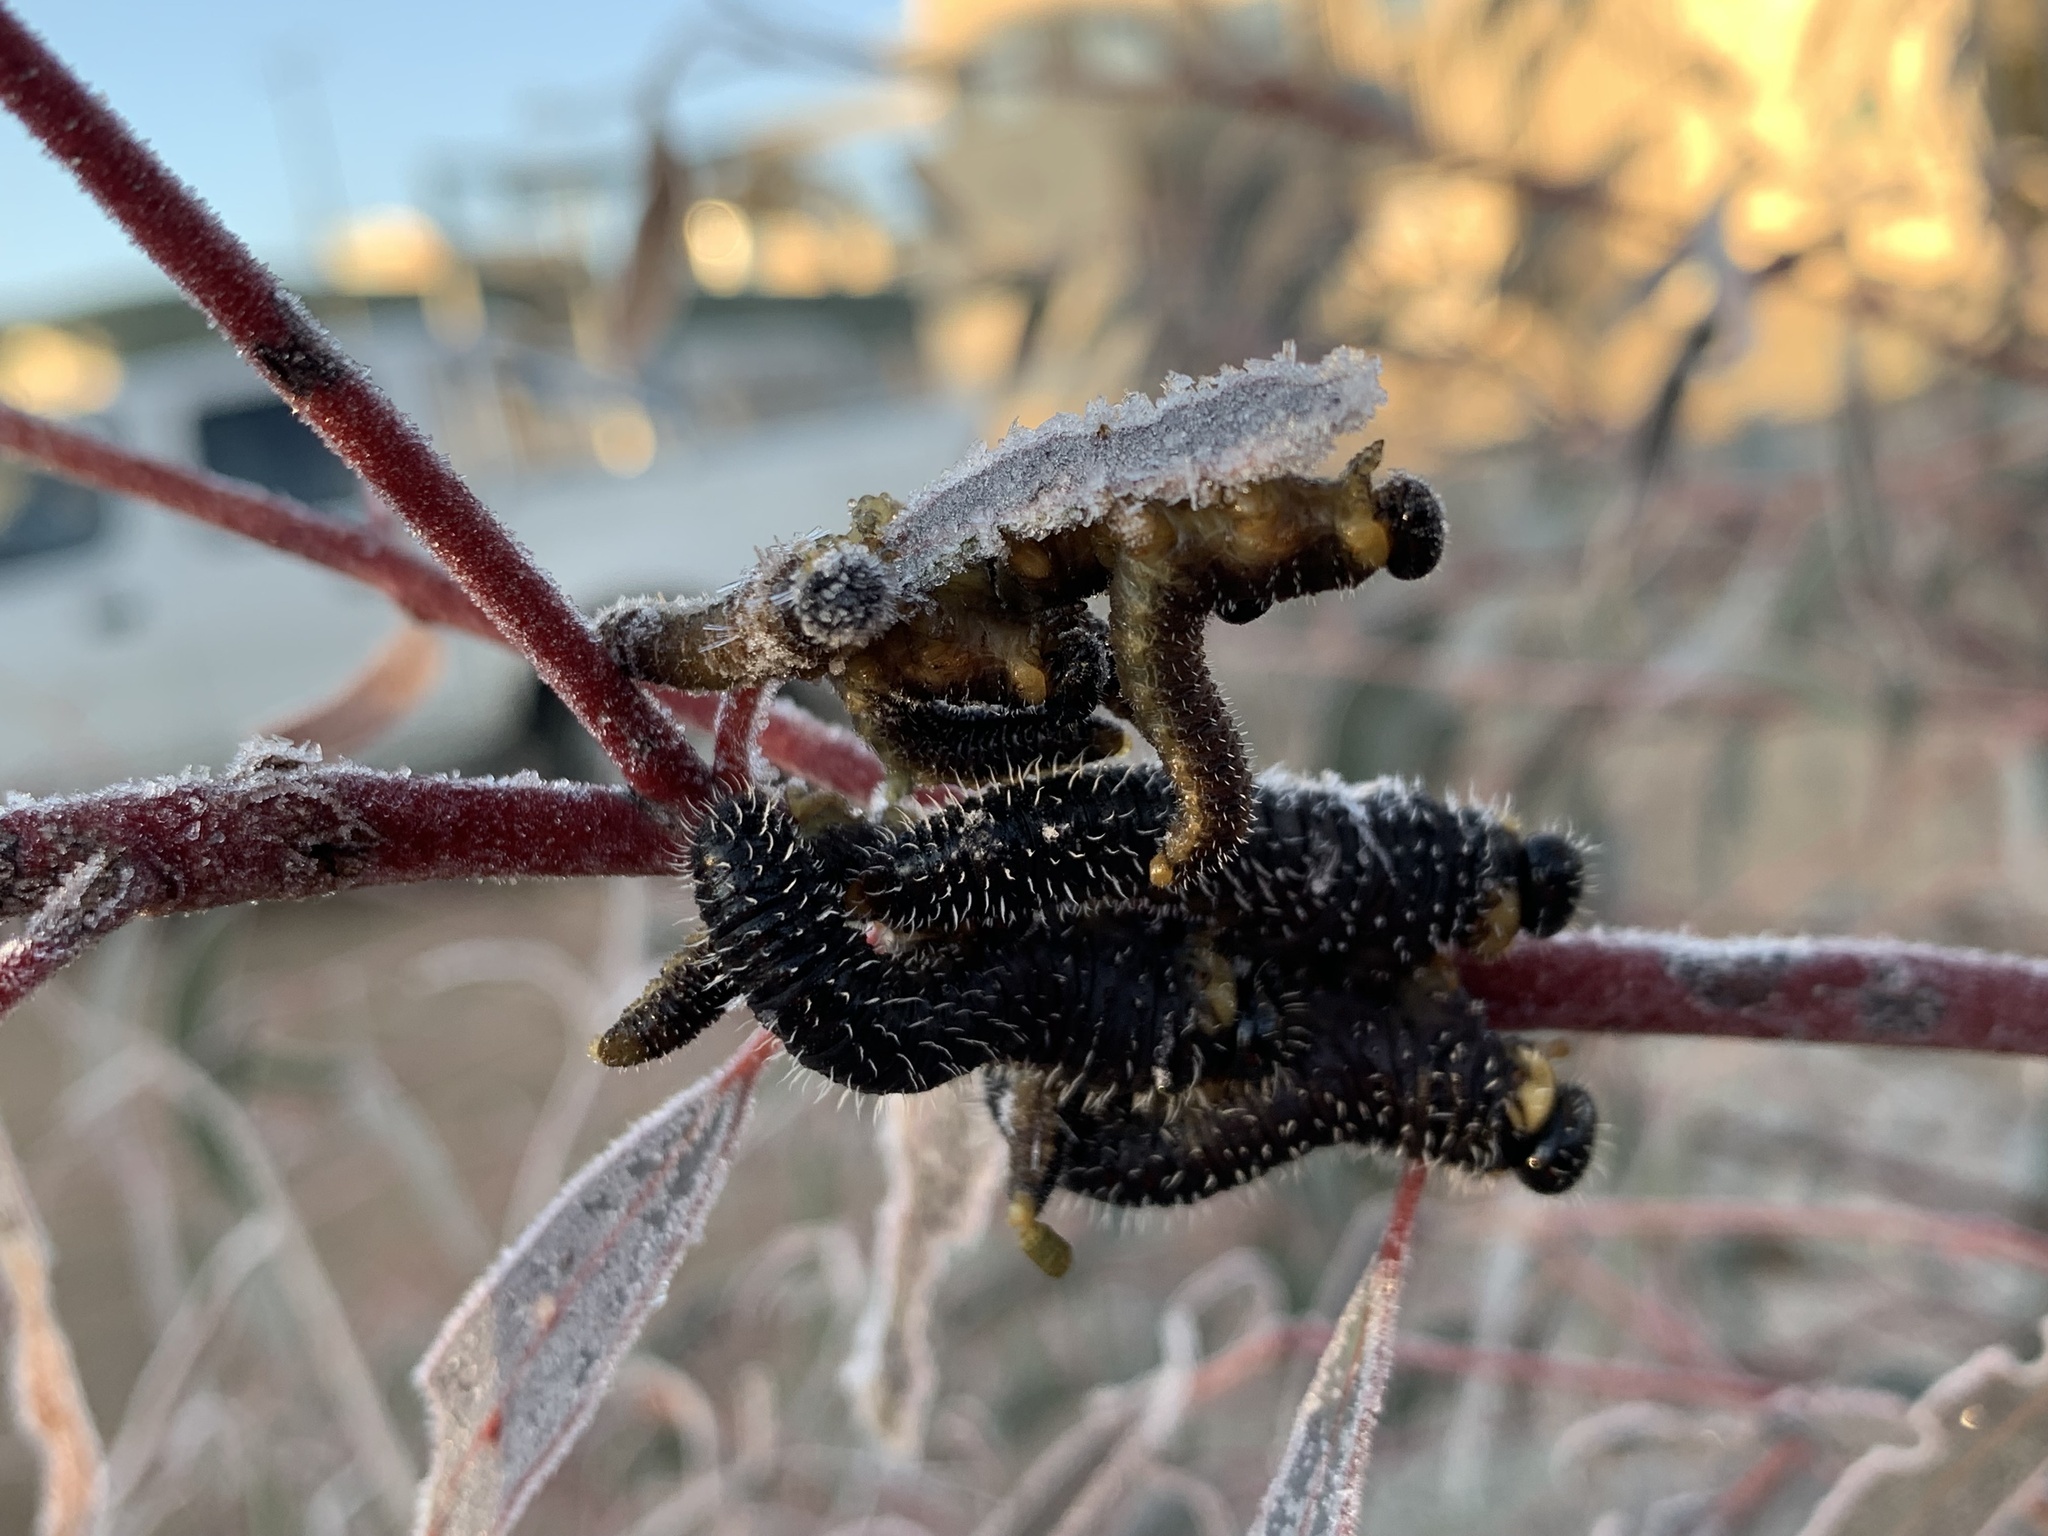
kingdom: Animalia
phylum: Arthropoda
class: Insecta
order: Hymenoptera
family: Pergidae
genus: Perga
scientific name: Perga affinis
